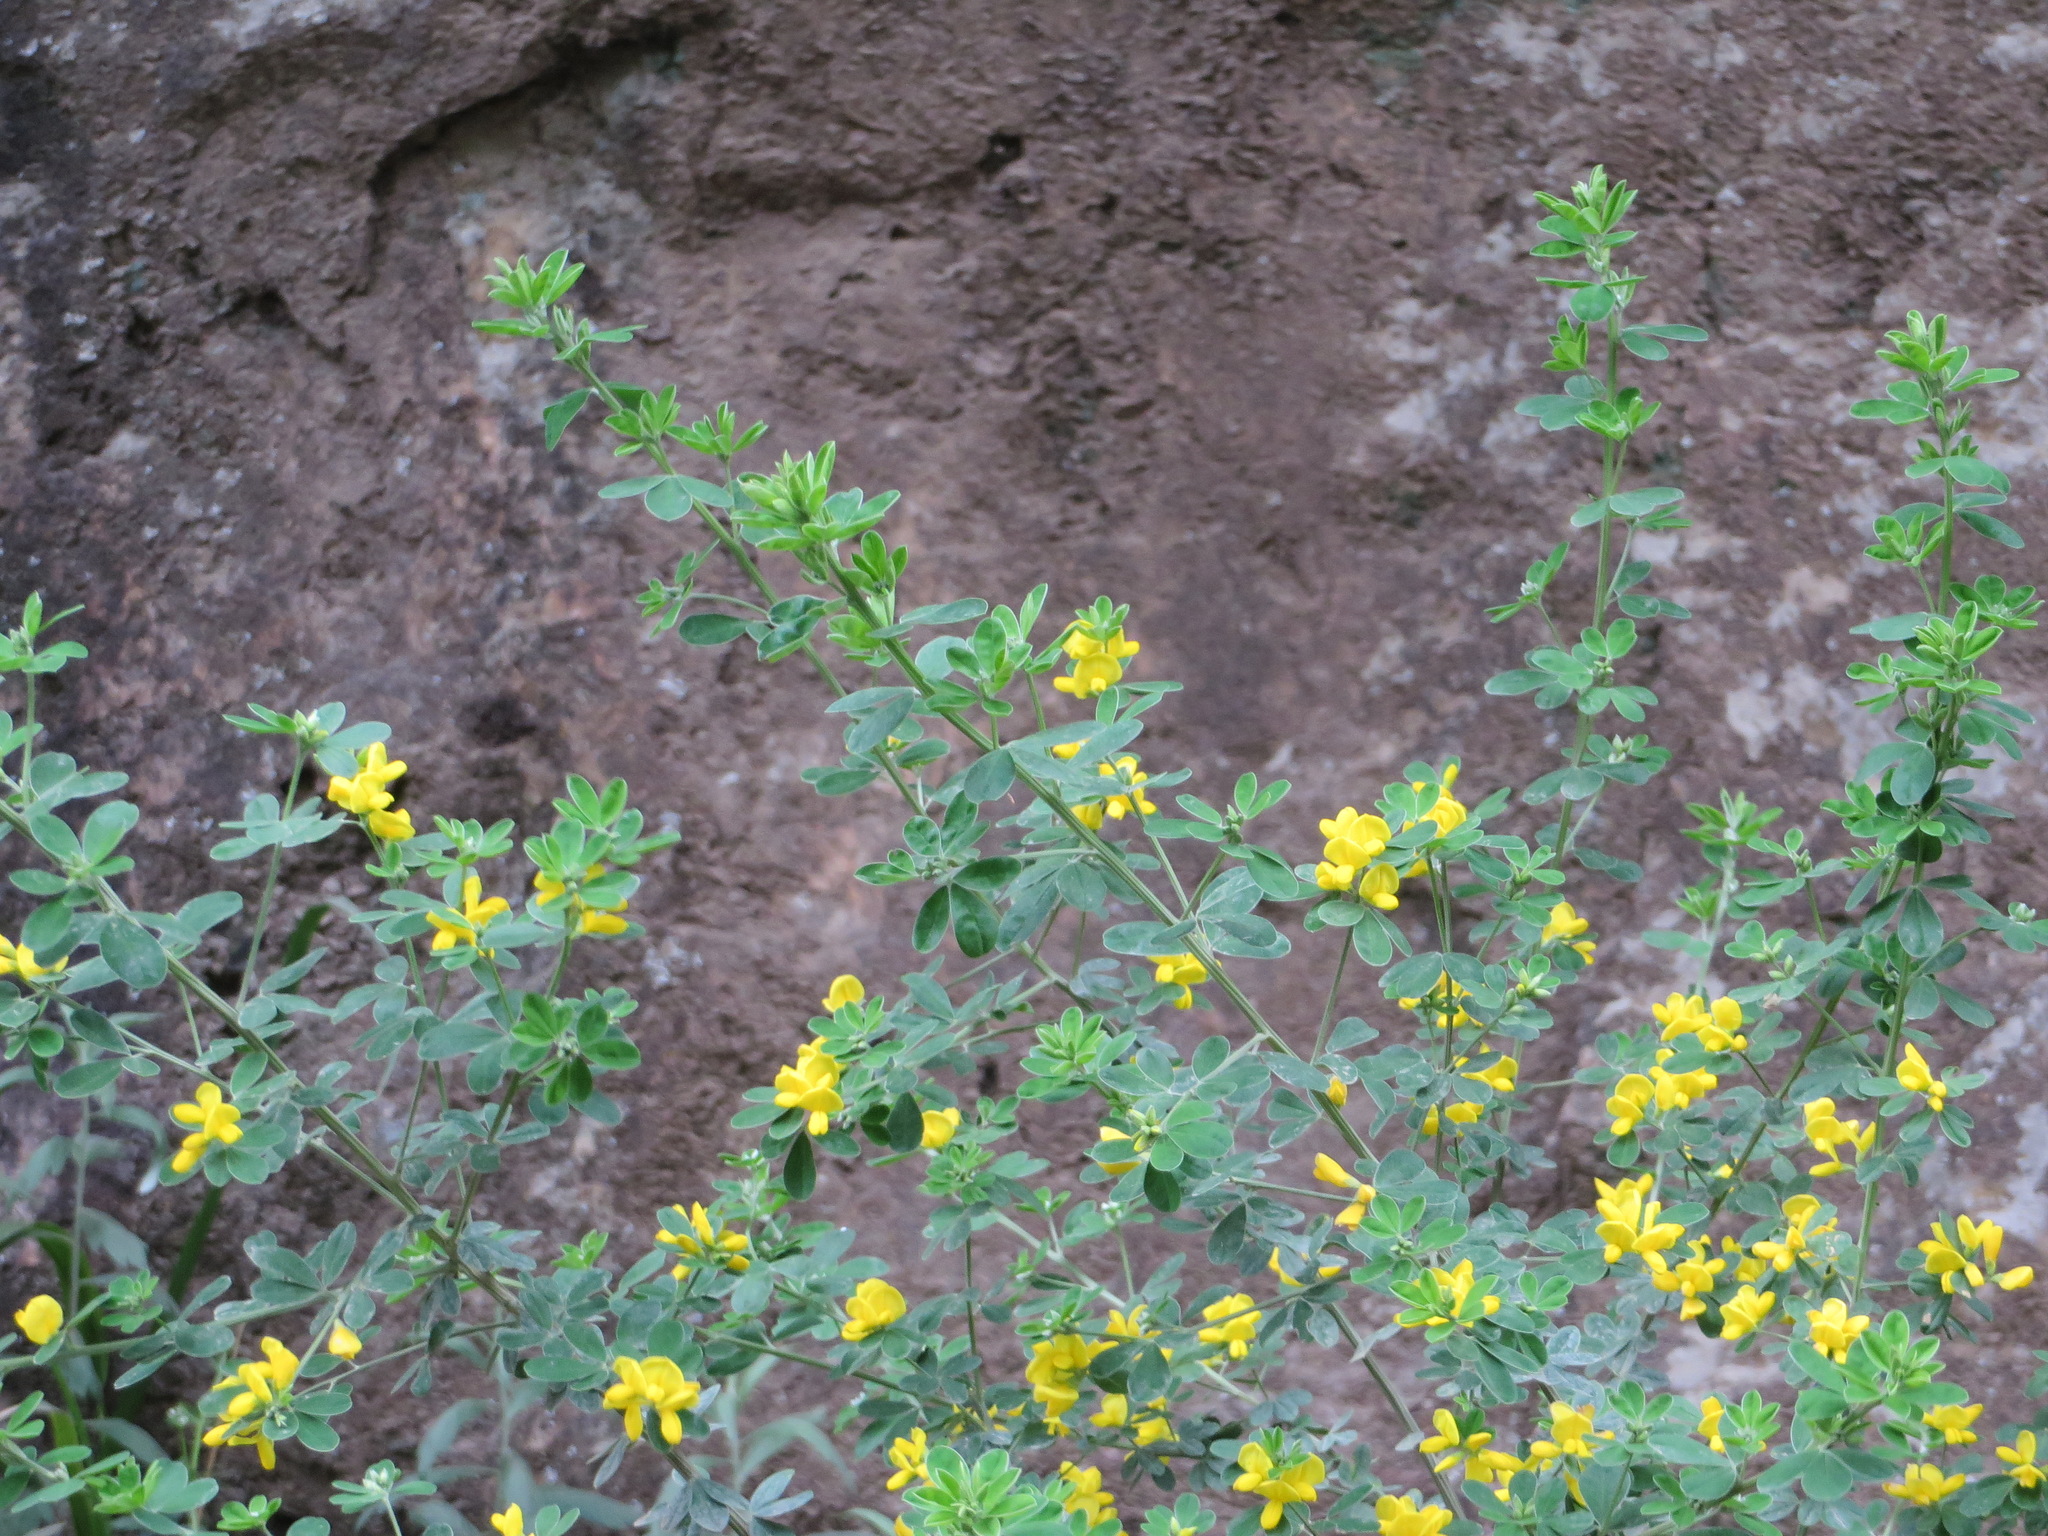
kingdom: Plantae
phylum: Tracheophyta
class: Magnoliopsida
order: Fabales
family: Fabaceae
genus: Genista
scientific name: Genista monspessulana
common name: Montpellier broom
